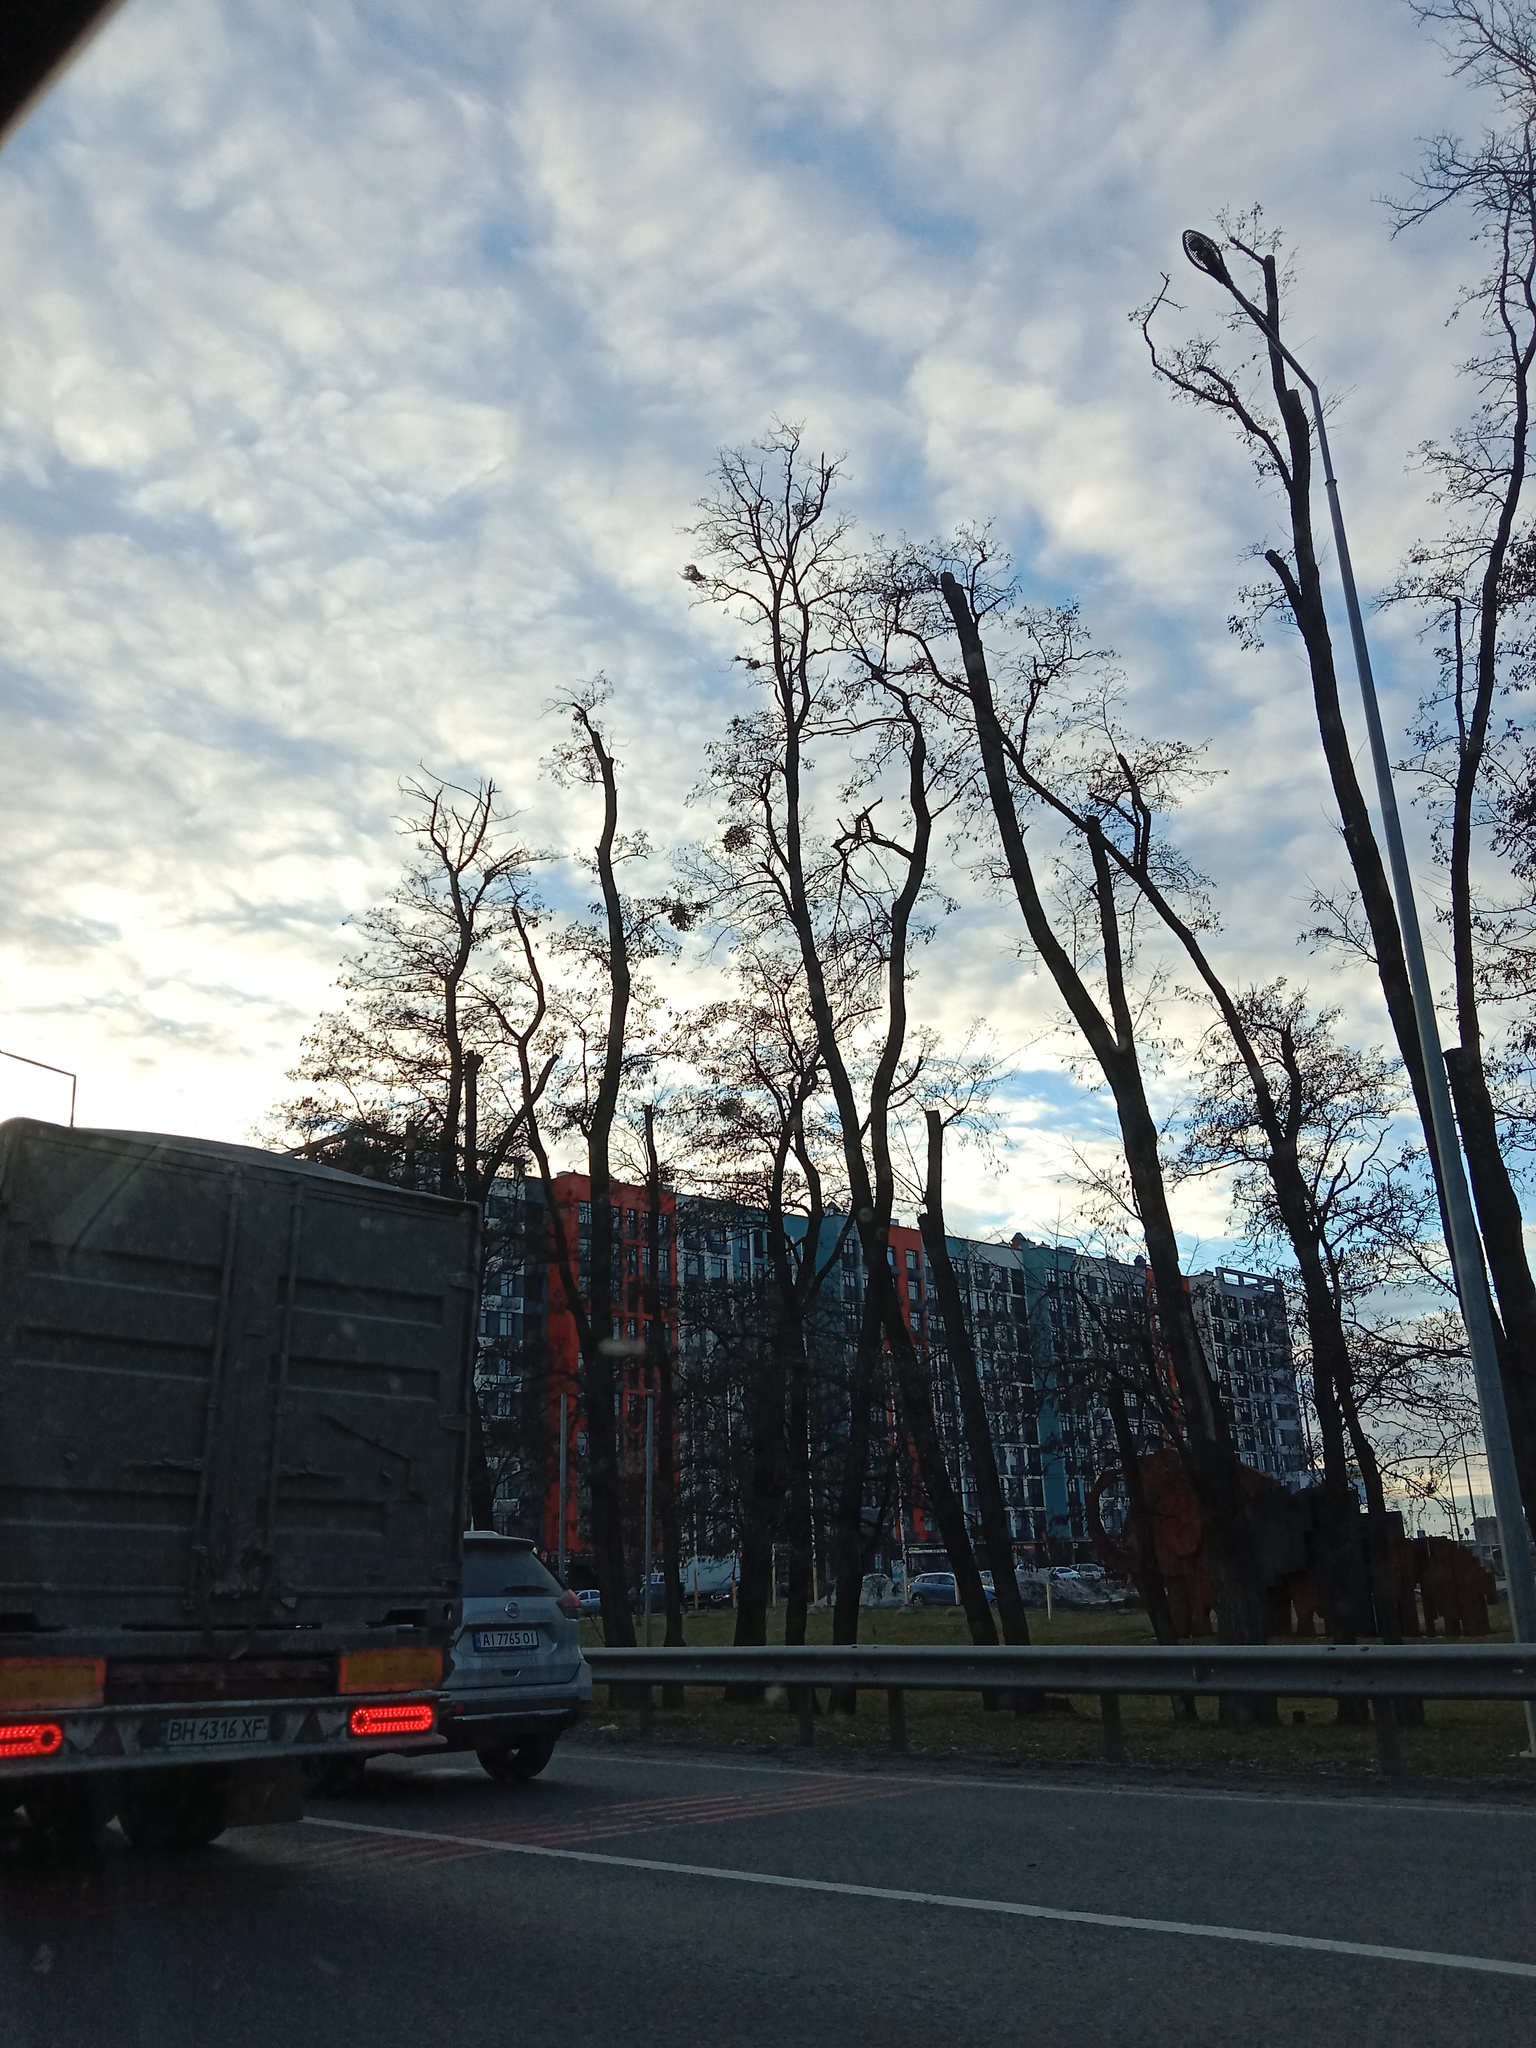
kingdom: Plantae
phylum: Tracheophyta
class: Magnoliopsida
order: Santalales
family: Viscaceae
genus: Viscum
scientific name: Viscum album
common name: Mistletoe
